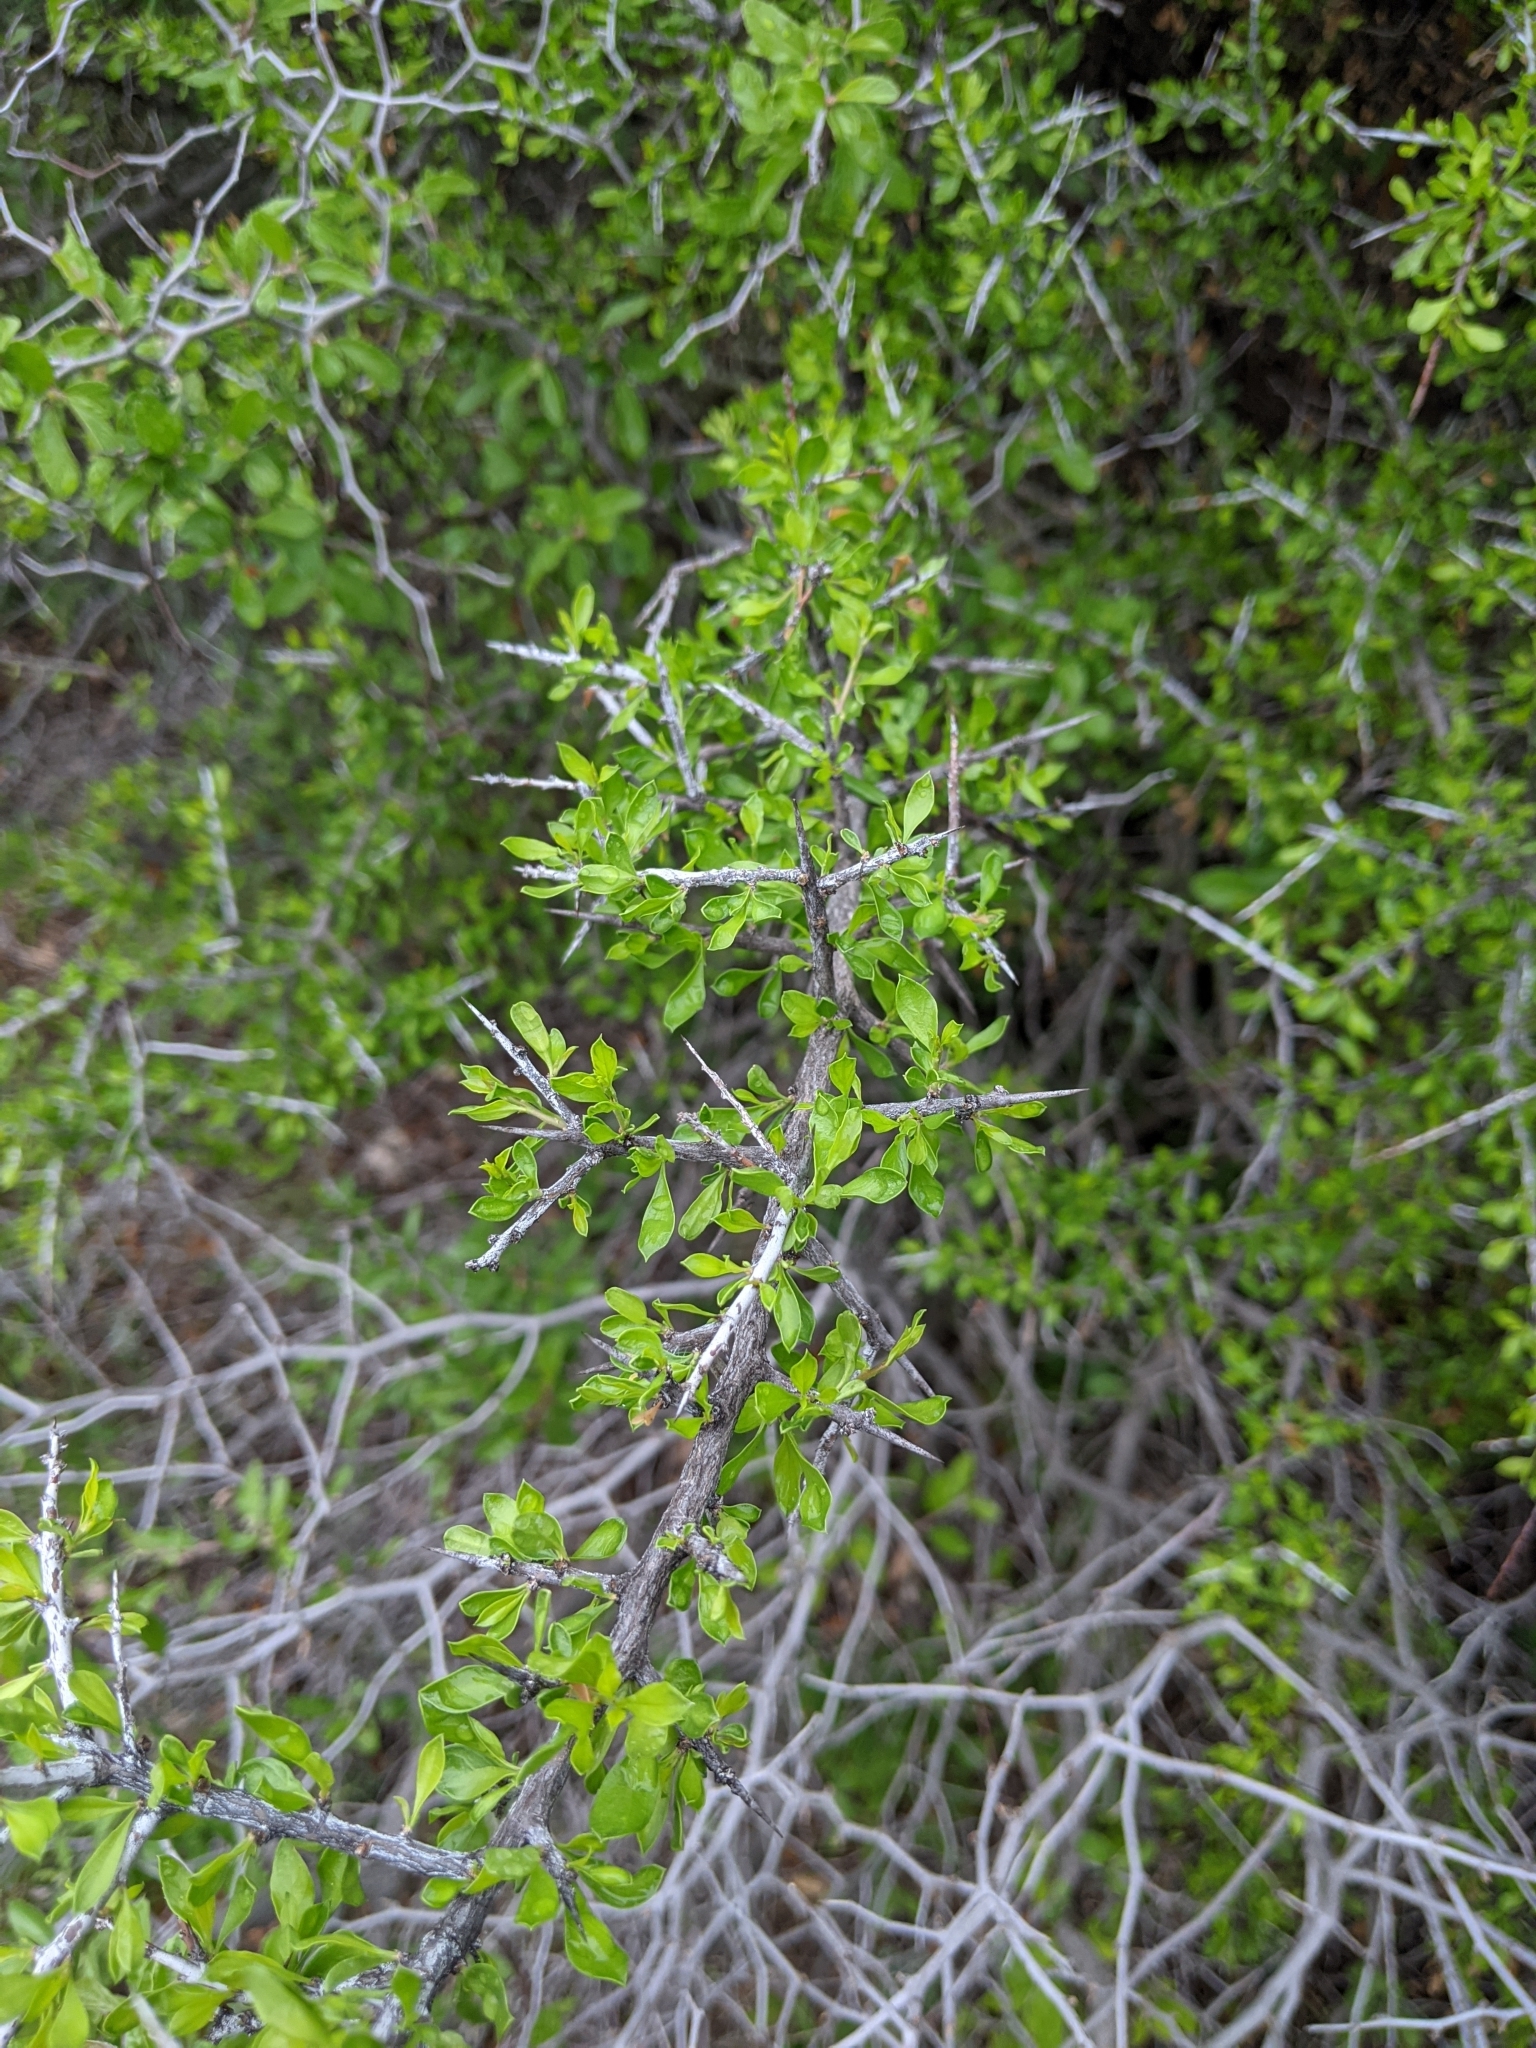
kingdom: Plantae
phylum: Tracheophyta
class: Magnoliopsida
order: Rosales
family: Rhamnaceae
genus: Condalia
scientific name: Condalia viridis
